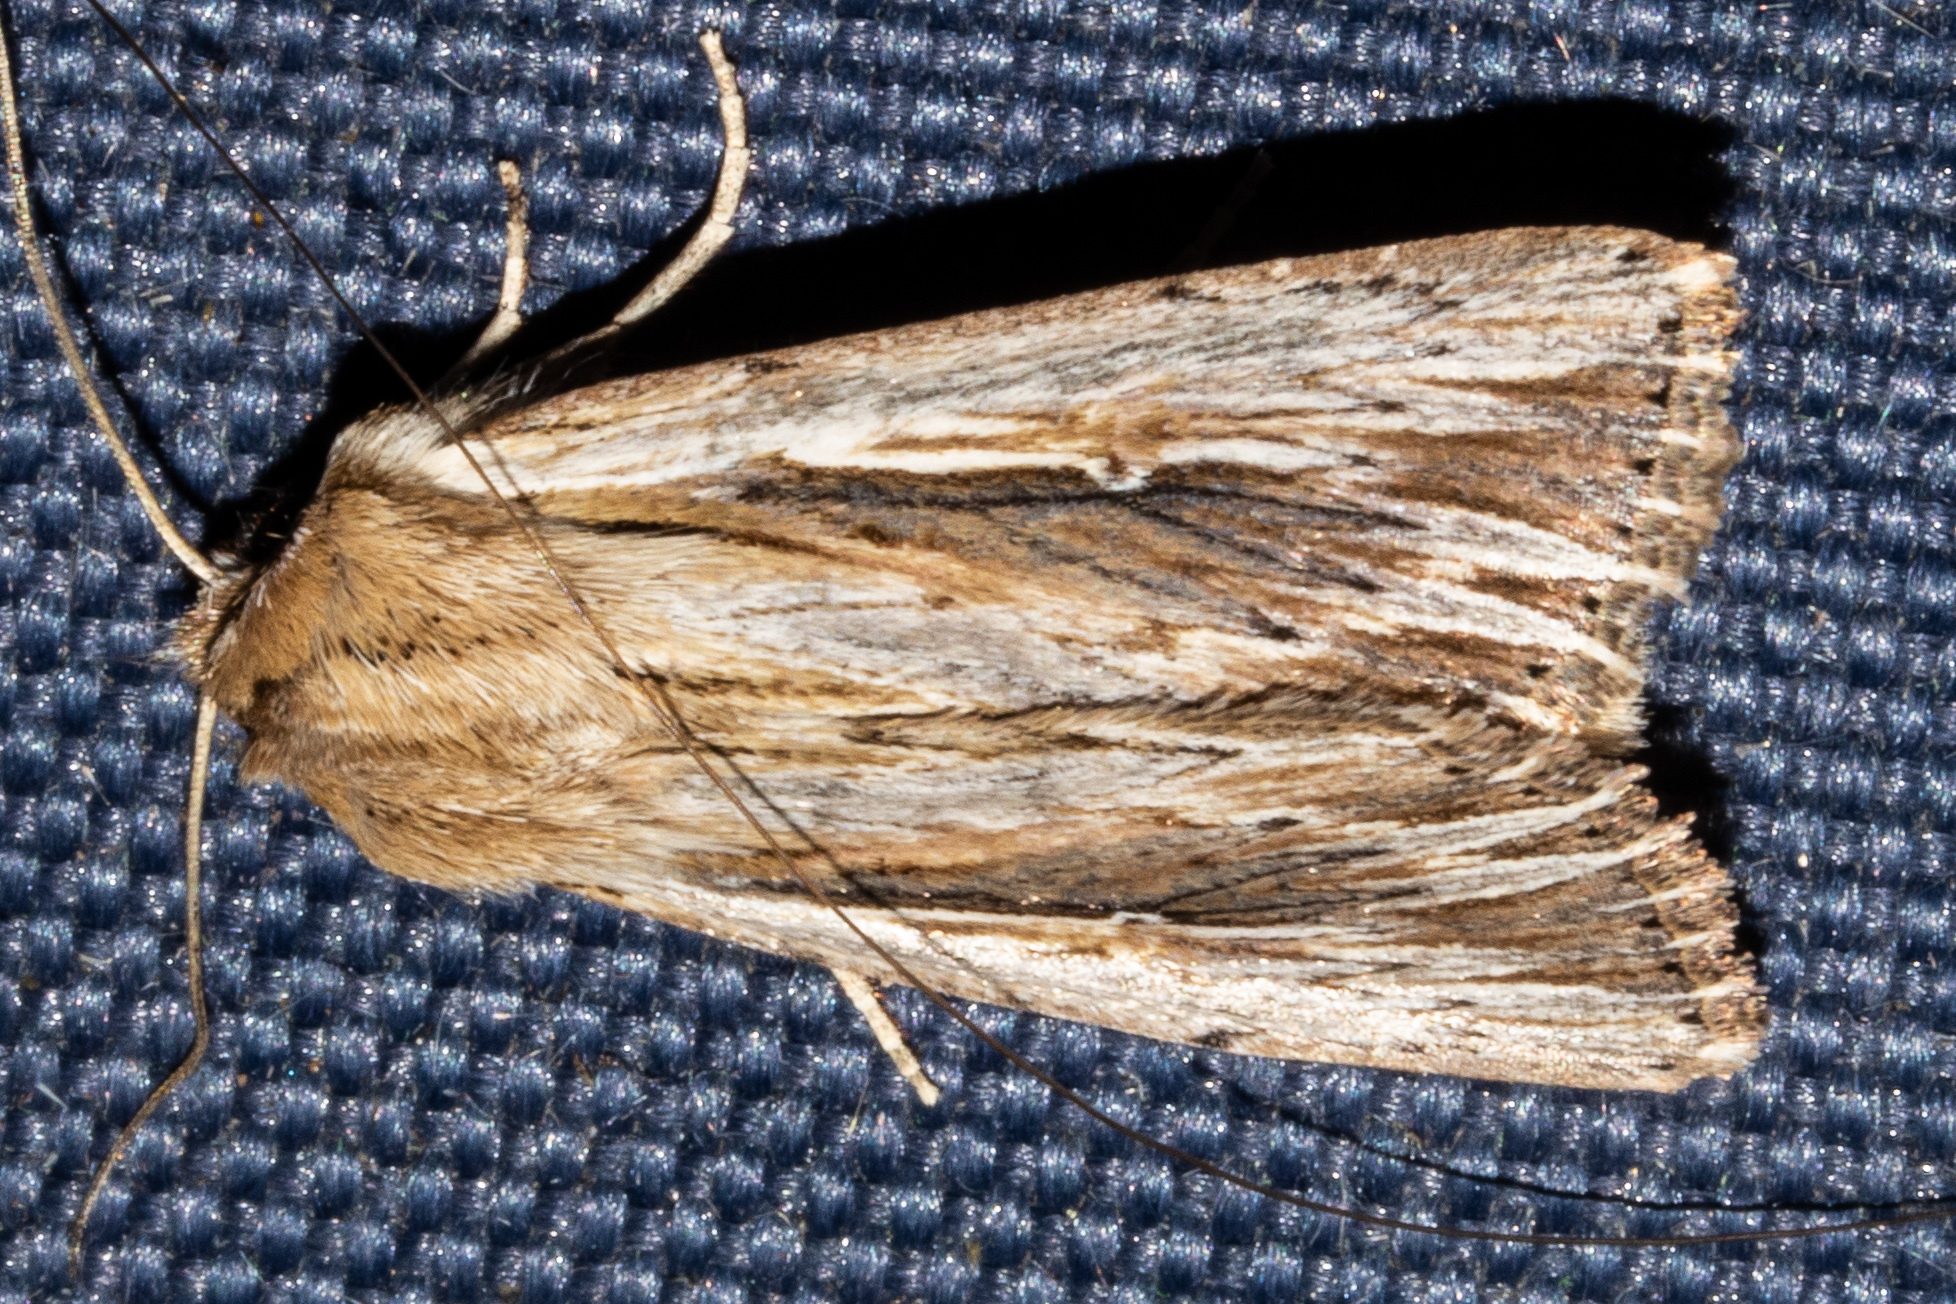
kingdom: Animalia
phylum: Arthropoda
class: Insecta
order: Lepidoptera
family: Noctuidae
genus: Persectania
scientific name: Persectania aversa
